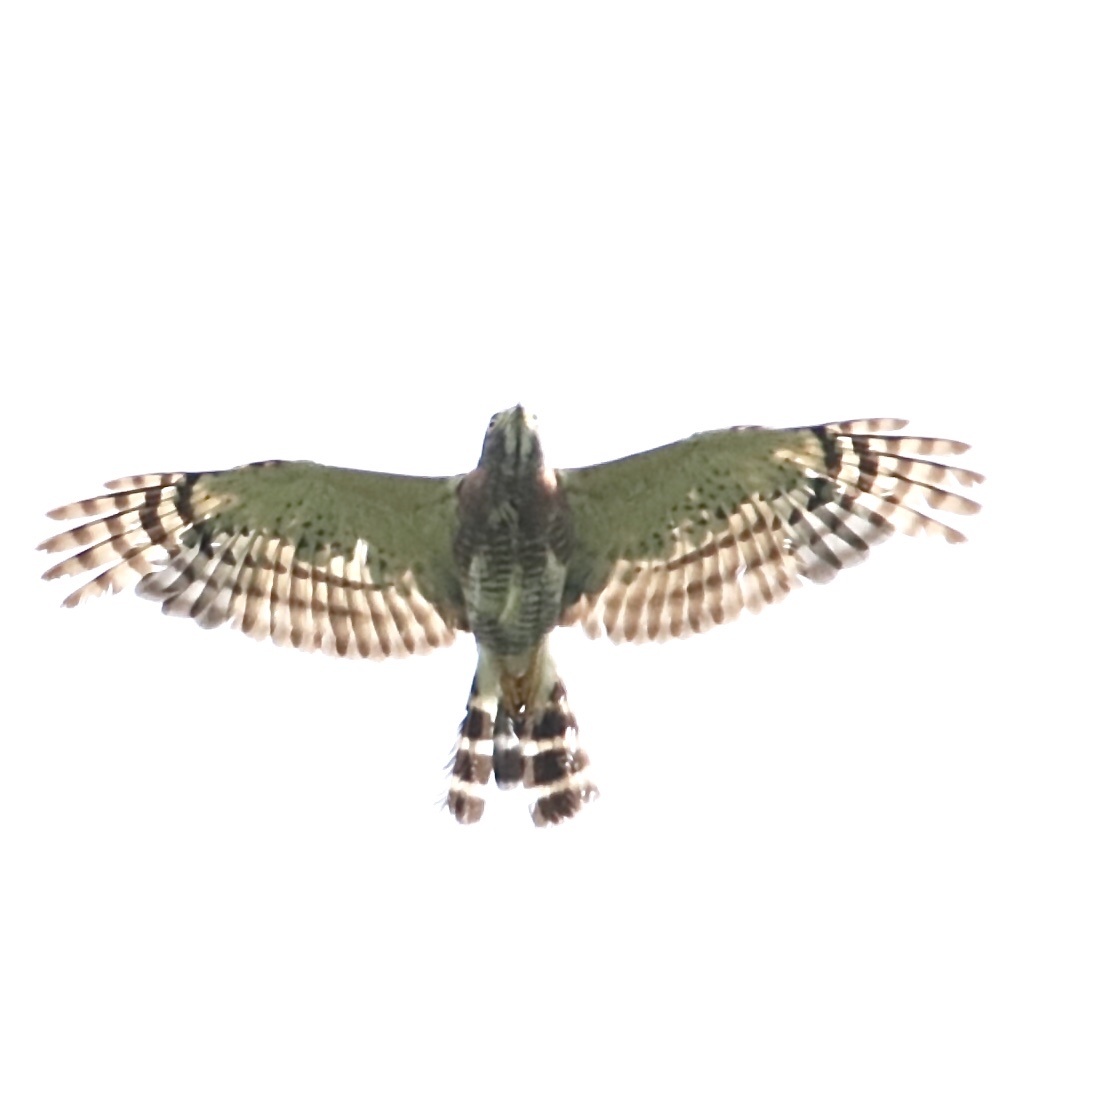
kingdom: Animalia
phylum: Chordata
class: Aves
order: Accipitriformes
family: Accipitridae
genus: Harpagus
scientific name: Harpagus bidentatus
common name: Double-toothed kite
